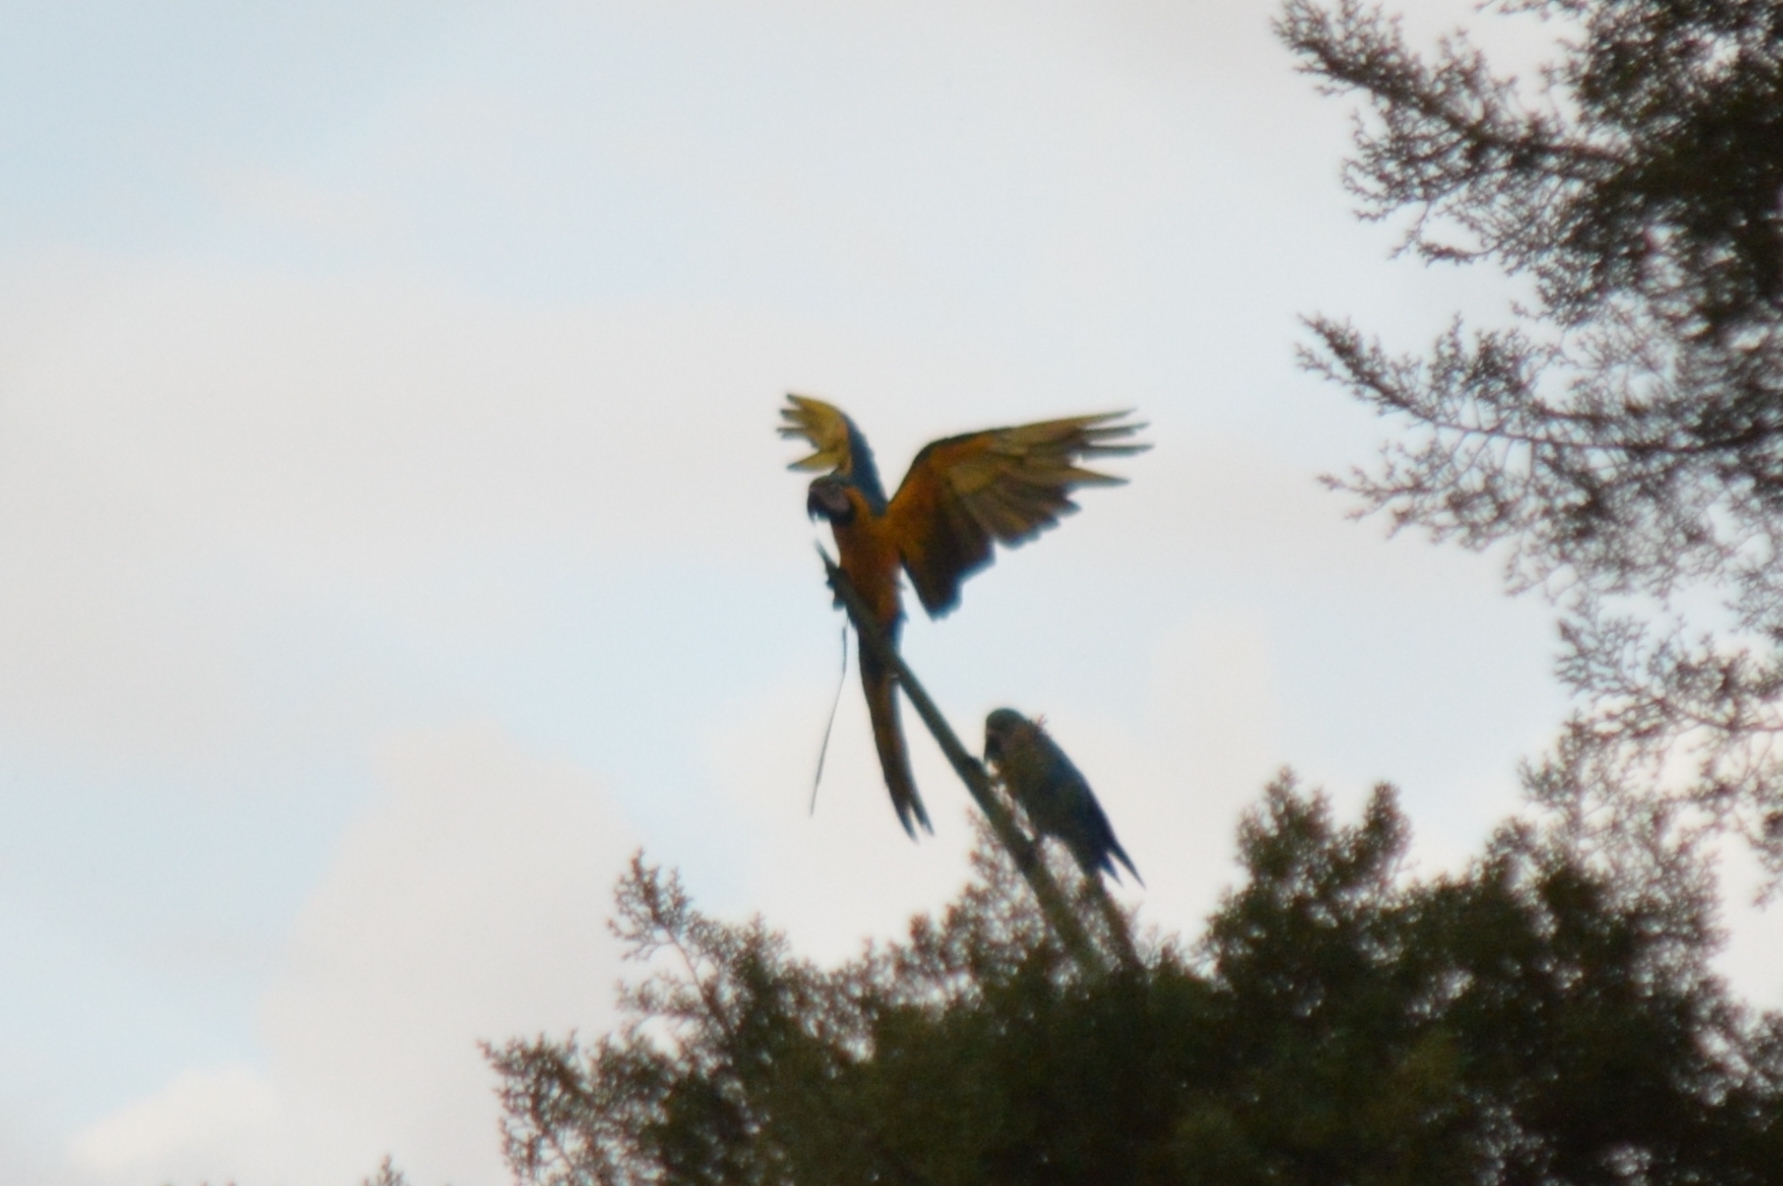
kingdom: Animalia
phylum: Chordata
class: Aves
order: Psittaciformes
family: Psittacidae
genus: Ara
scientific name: Ara ararauna
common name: Blue-and-yellow macaw
